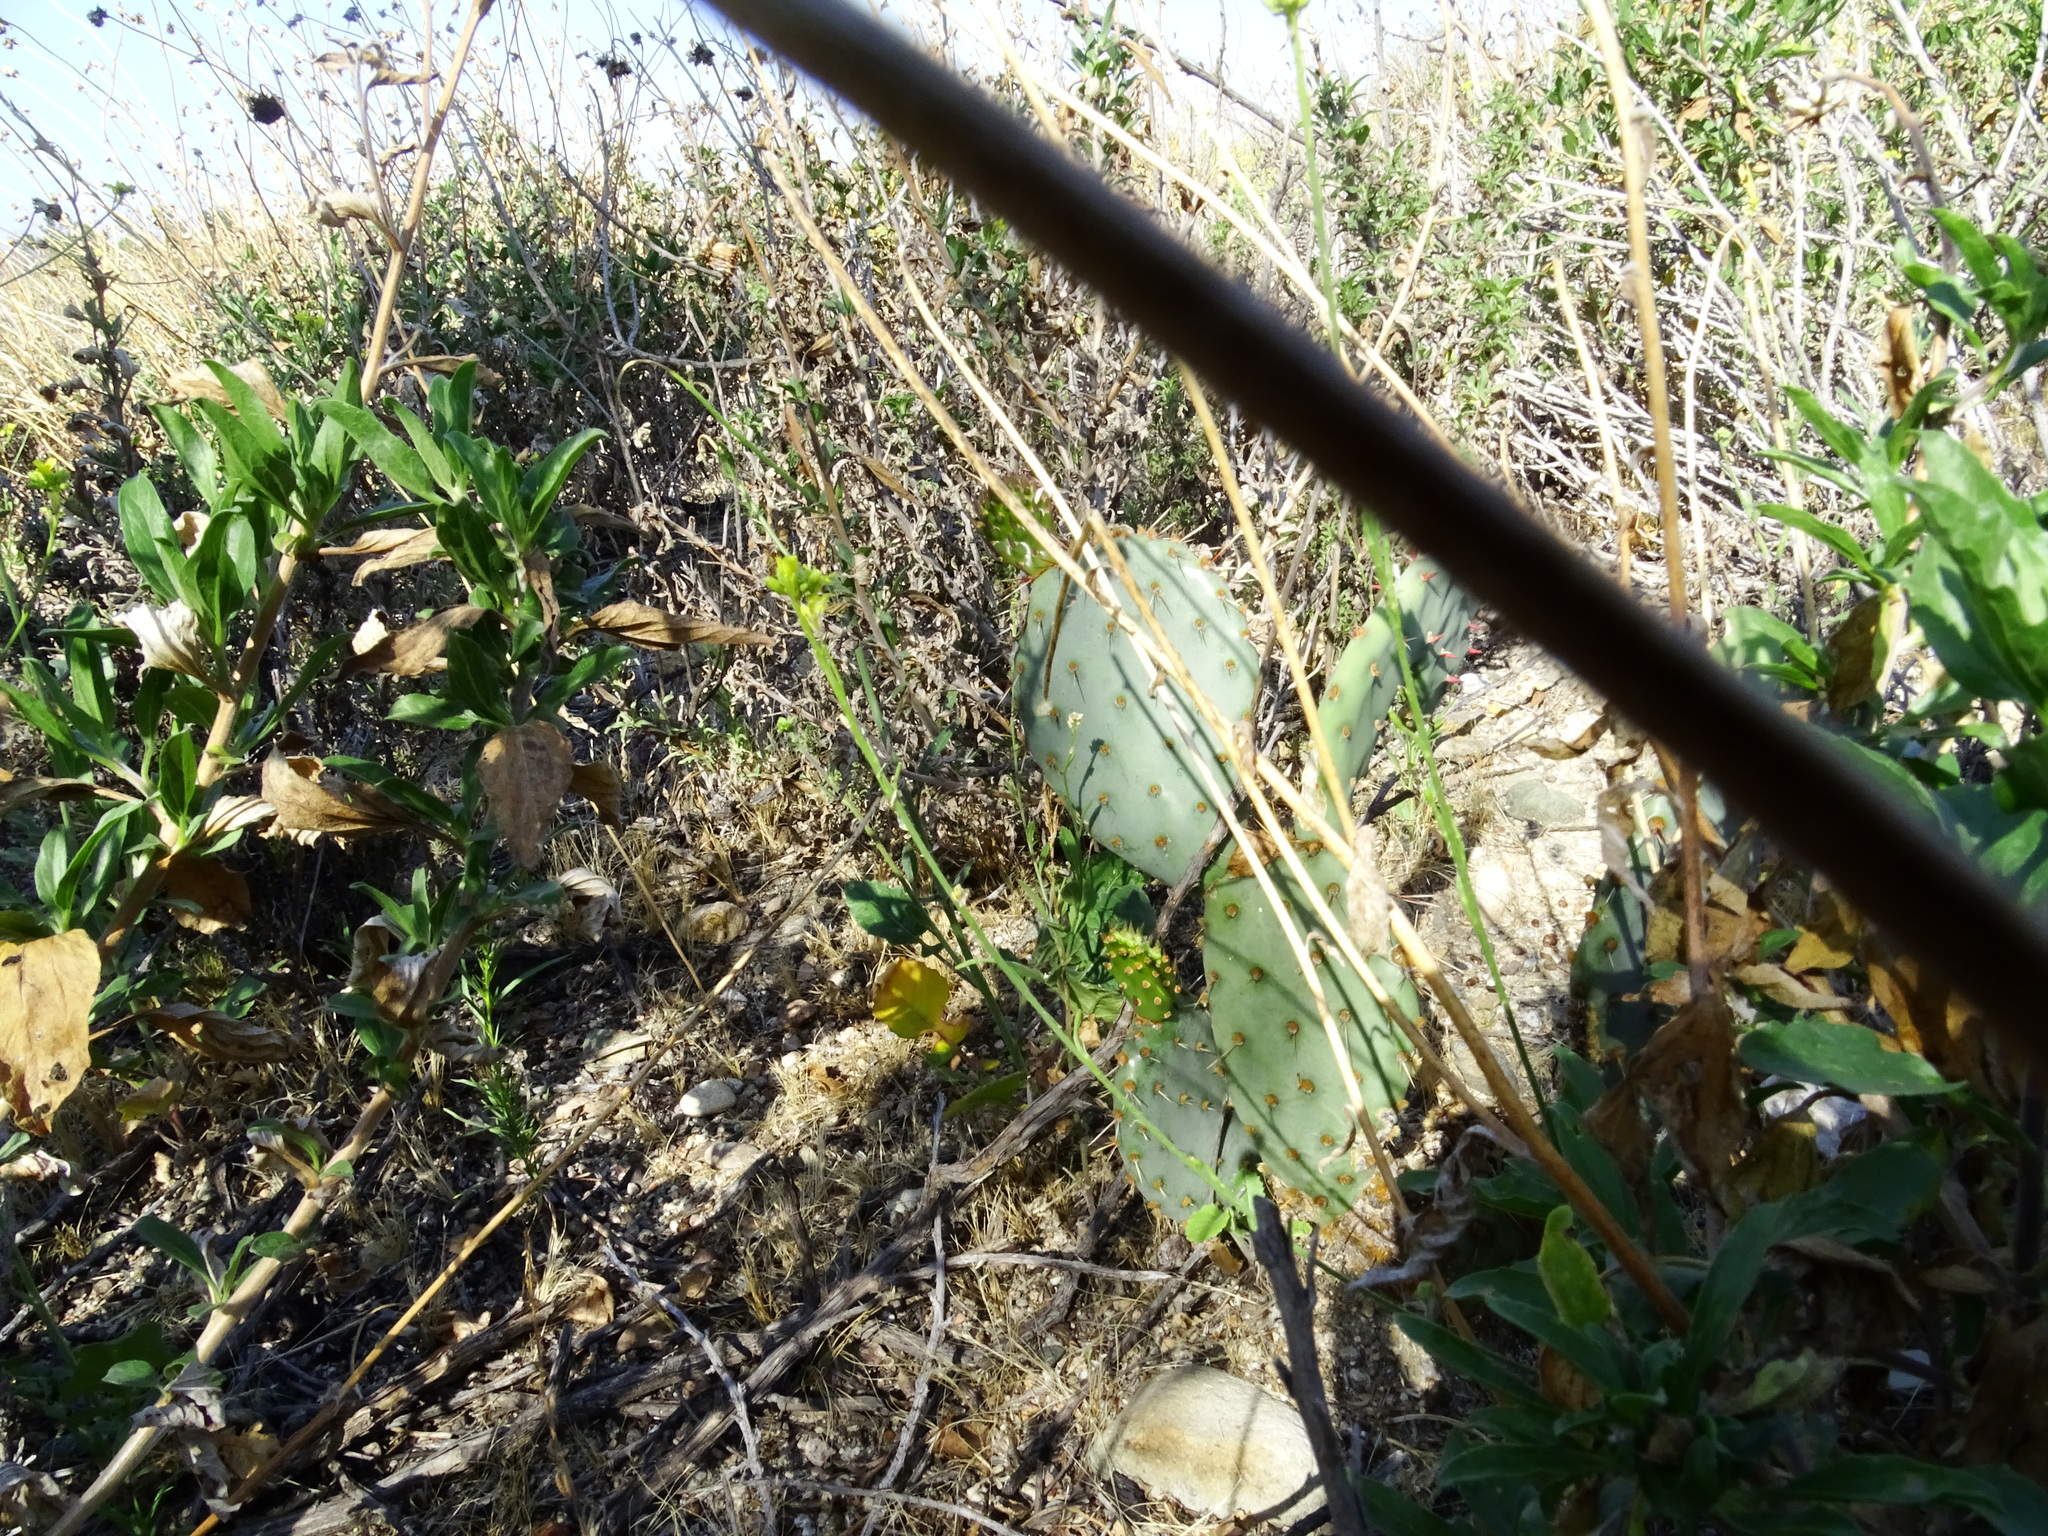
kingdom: Plantae
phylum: Tracheophyta
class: Magnoliopsida
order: Caryophyllales
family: Cactaceae
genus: Opuntia
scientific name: Opuntia littoralis
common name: Coastal prickly-pear
